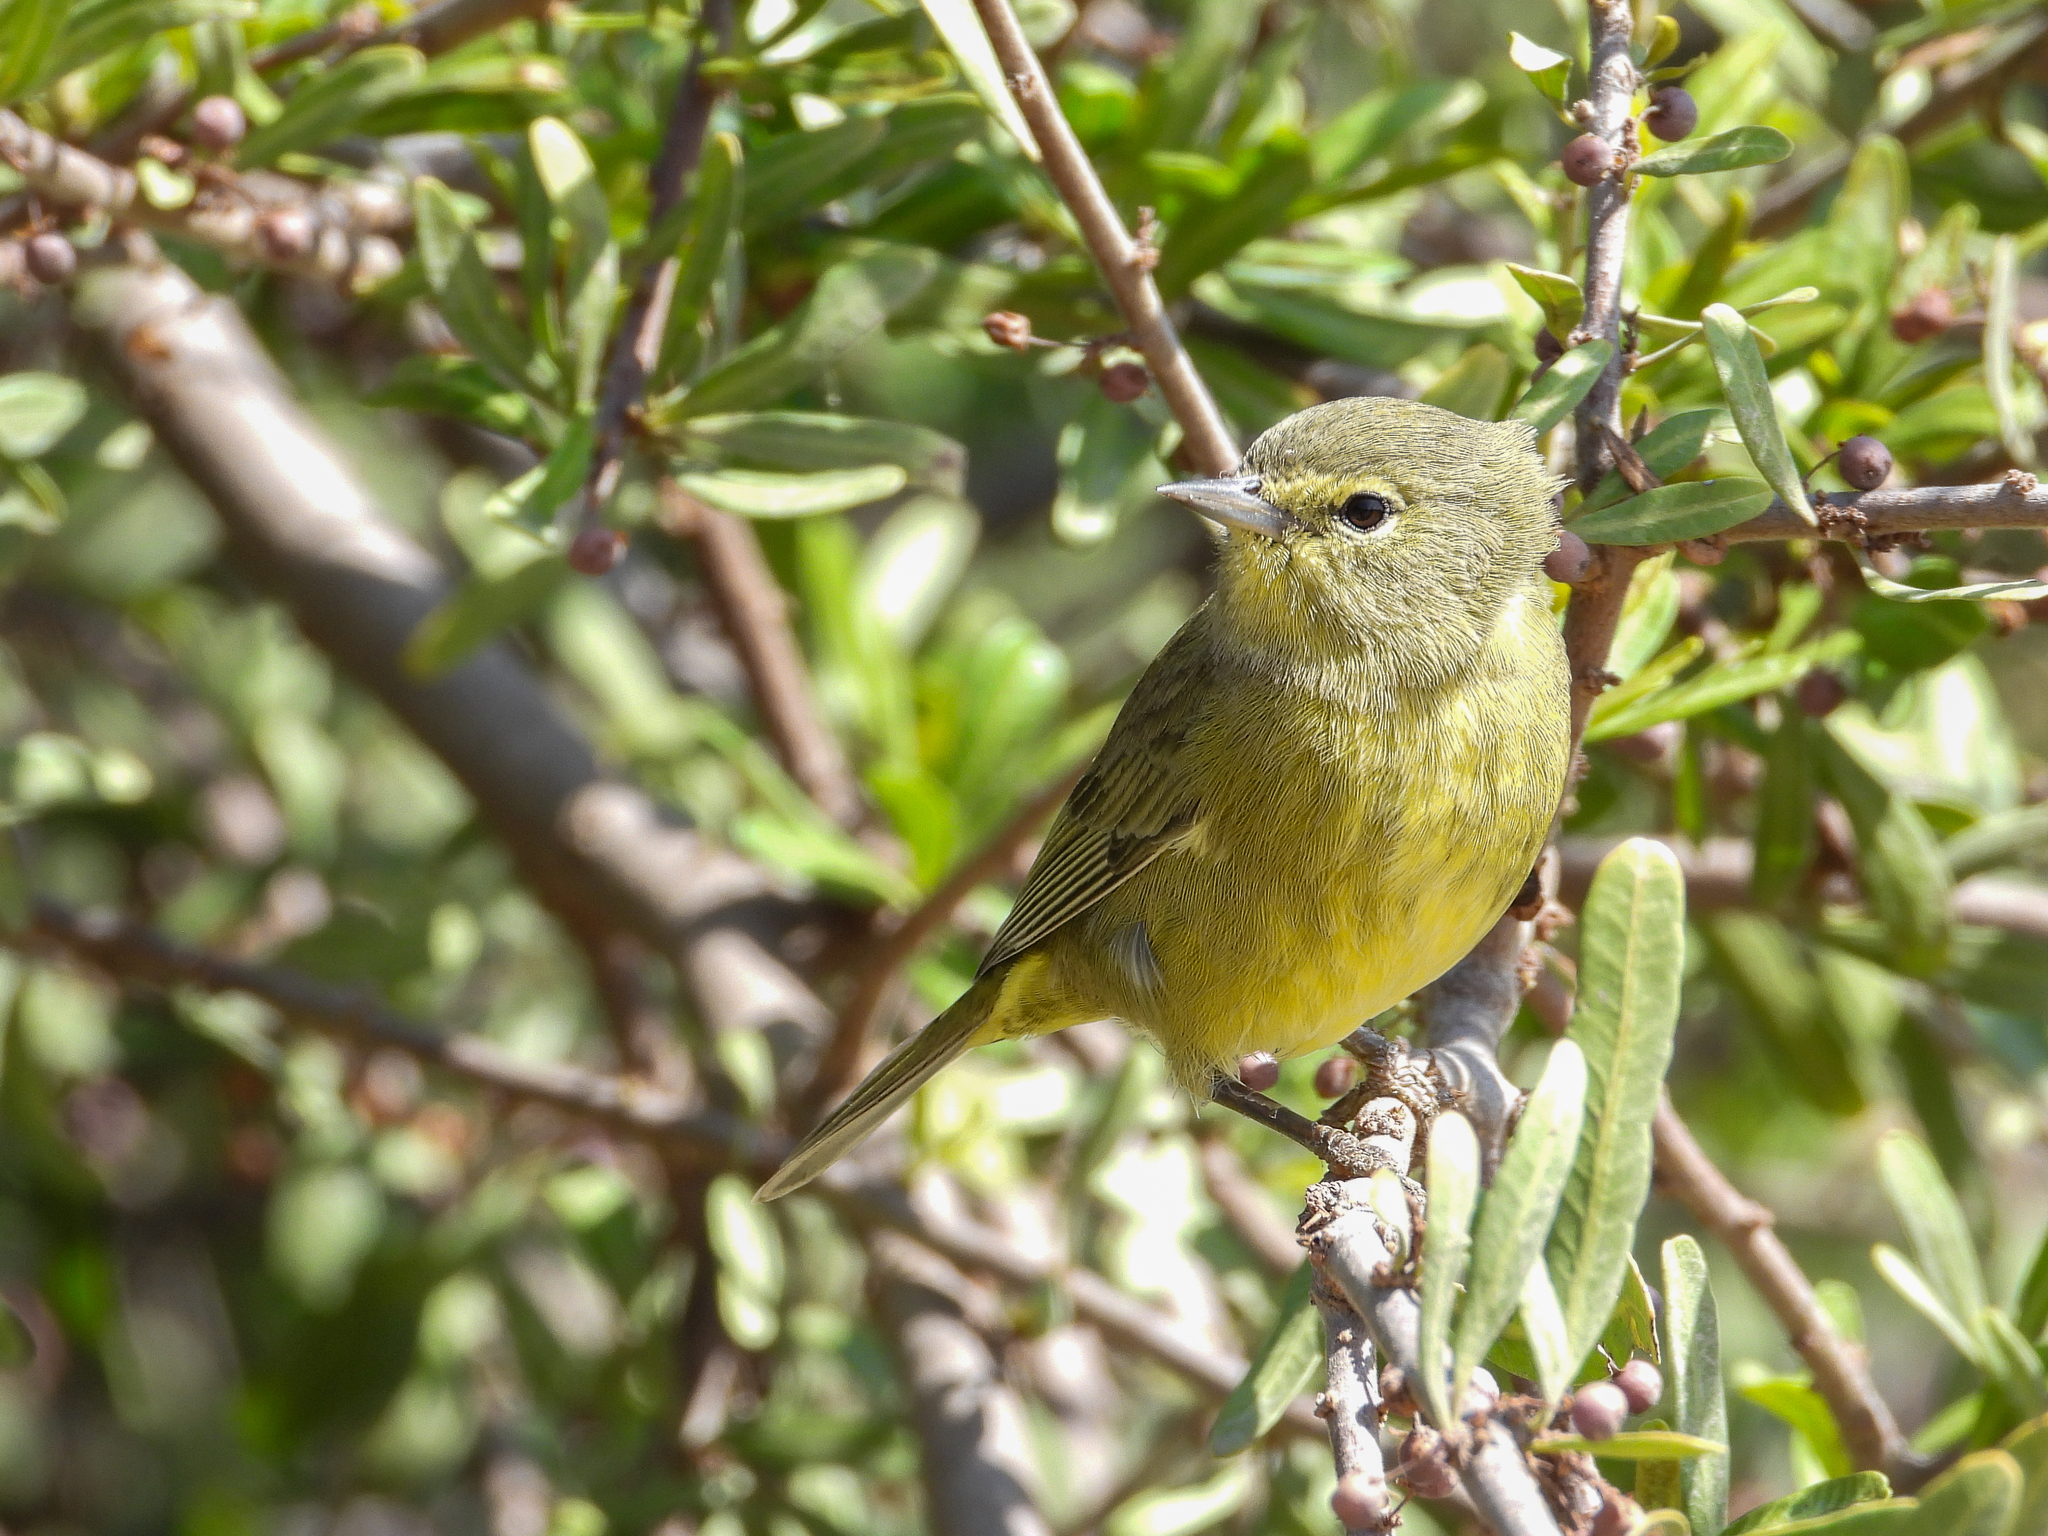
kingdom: Animalia
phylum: Chordata
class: Aves
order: Passeriformes
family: Parulidae
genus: Leiothlypis
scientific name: Leiothlypis celata
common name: Orange-crowned warbler
